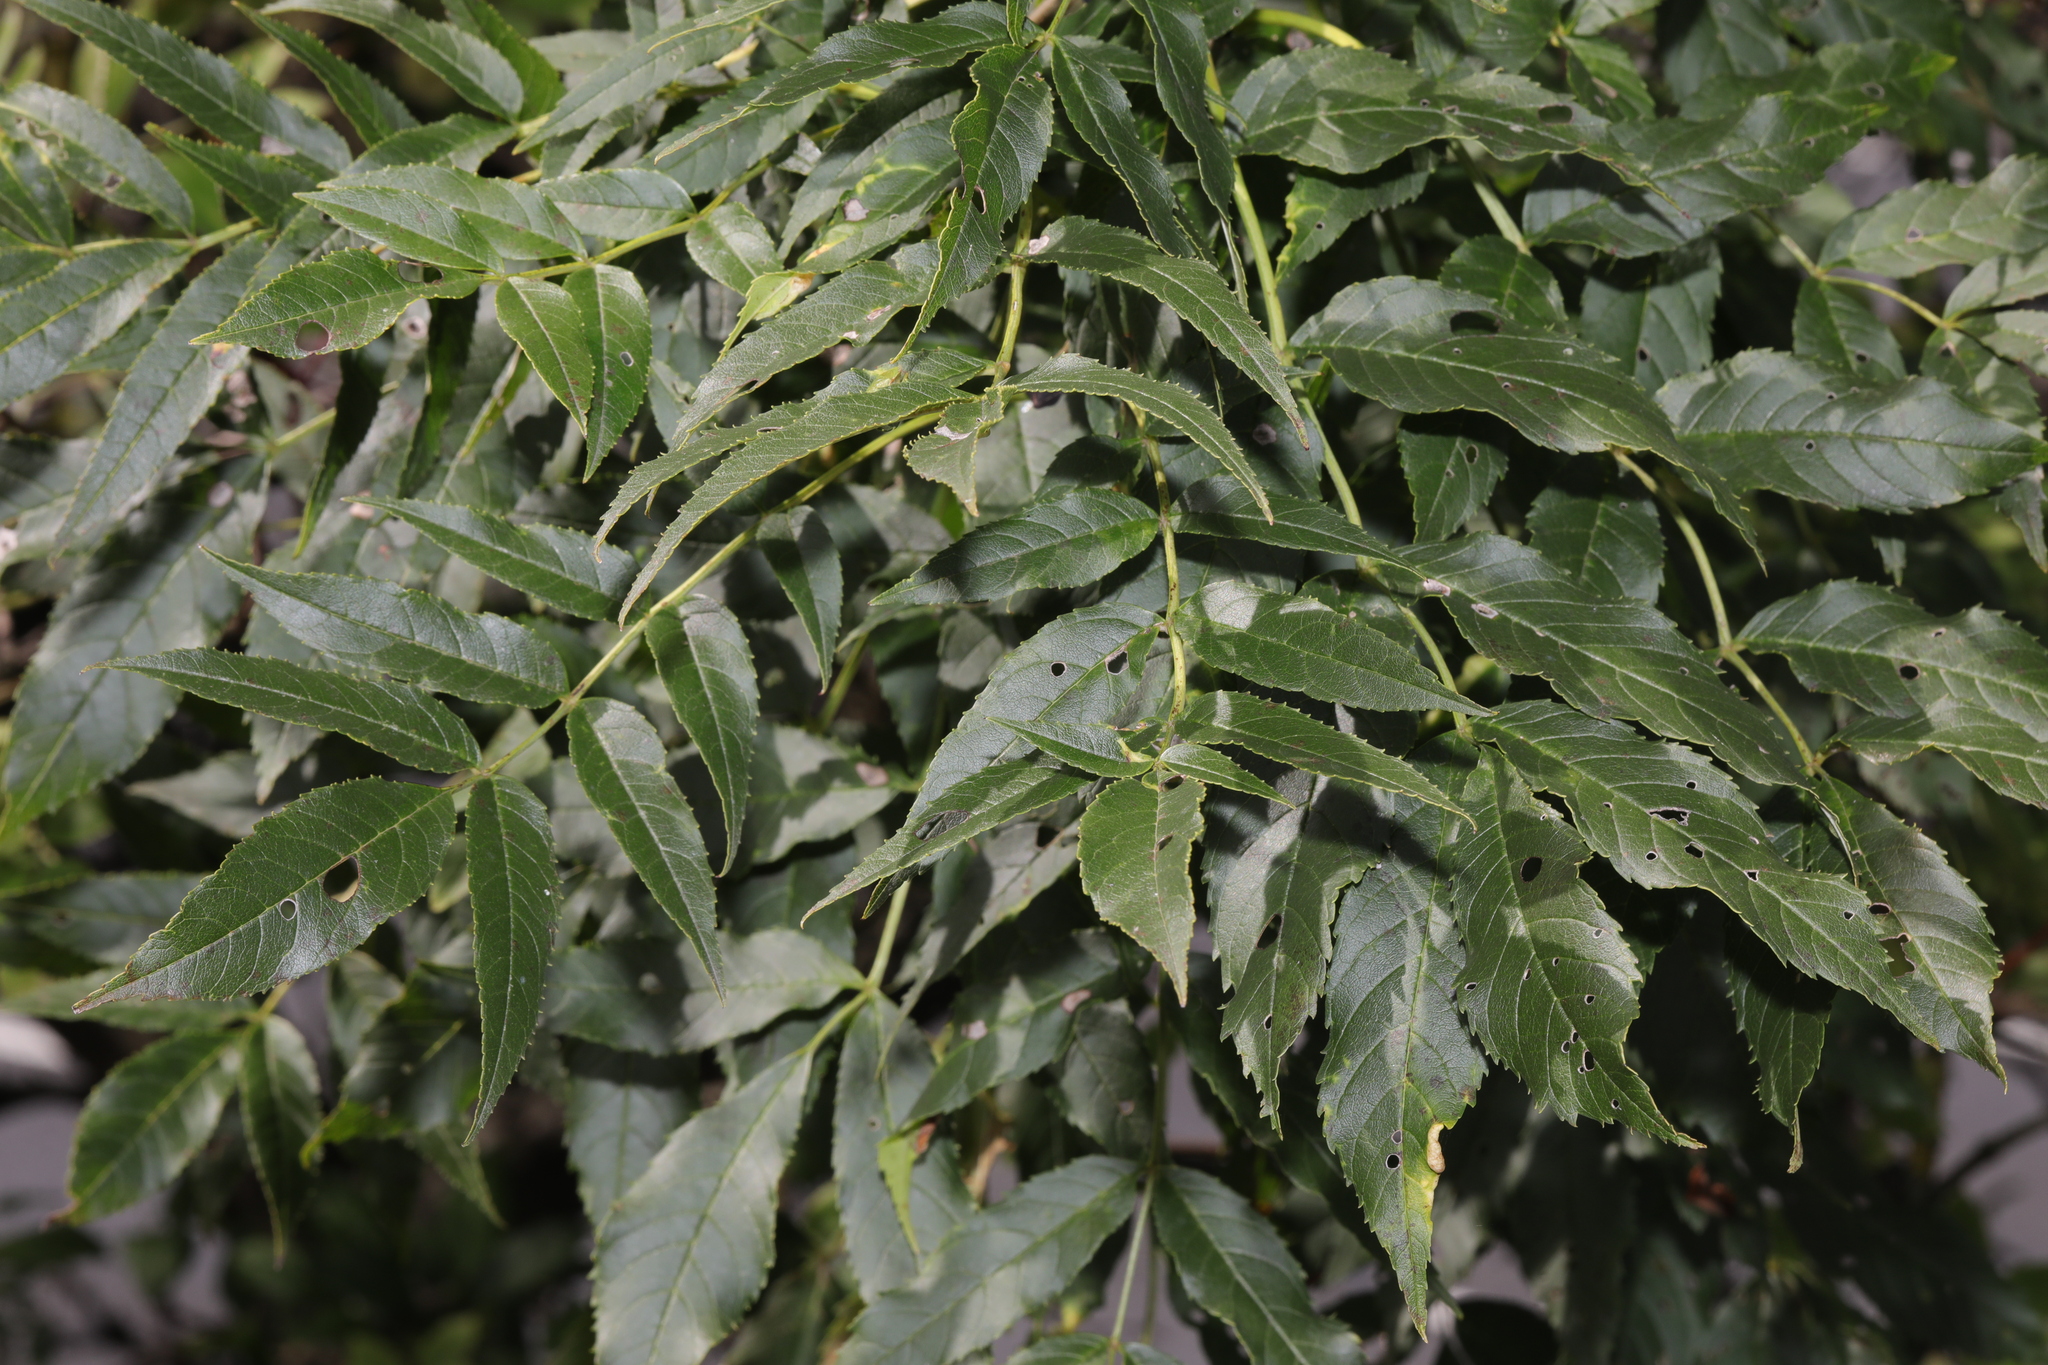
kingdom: Plantae
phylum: Tracheophyta
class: Magnoliopsida
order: Lamiales
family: Oleaceae
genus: Fraxinus
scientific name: Fraxinus excelsior
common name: European ash
